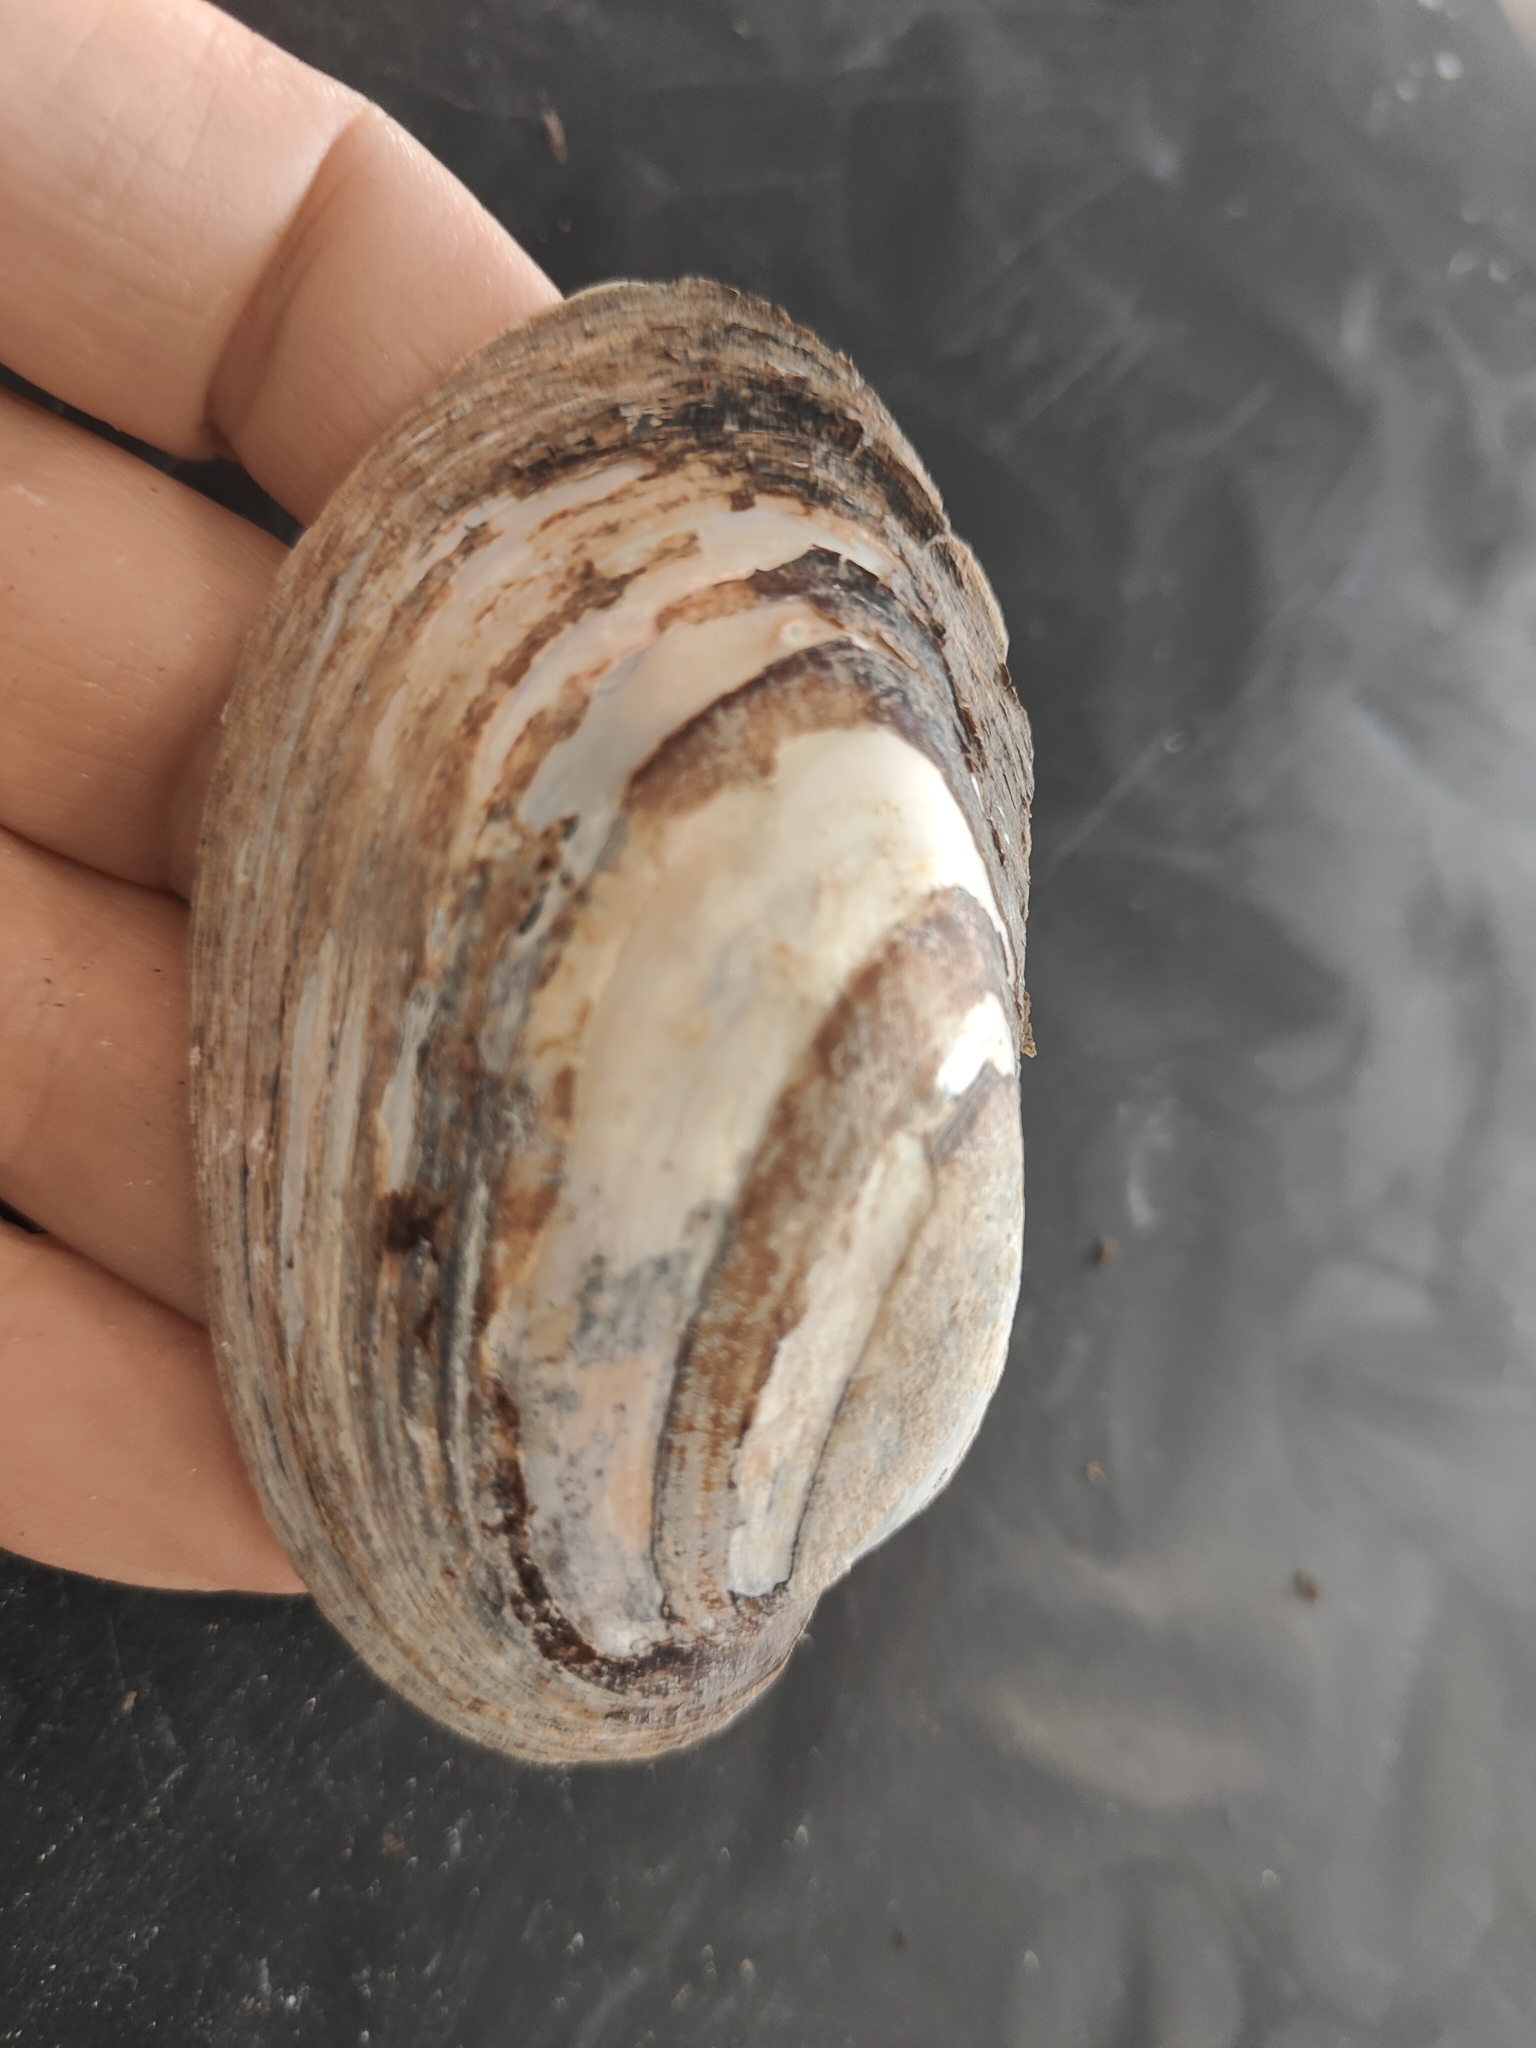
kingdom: Animalia
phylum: Mollusca
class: Bivalvia
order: Unionida
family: Unionidae
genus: Lampsilis
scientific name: Lampsilis siliquoidea
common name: Fatmucket
